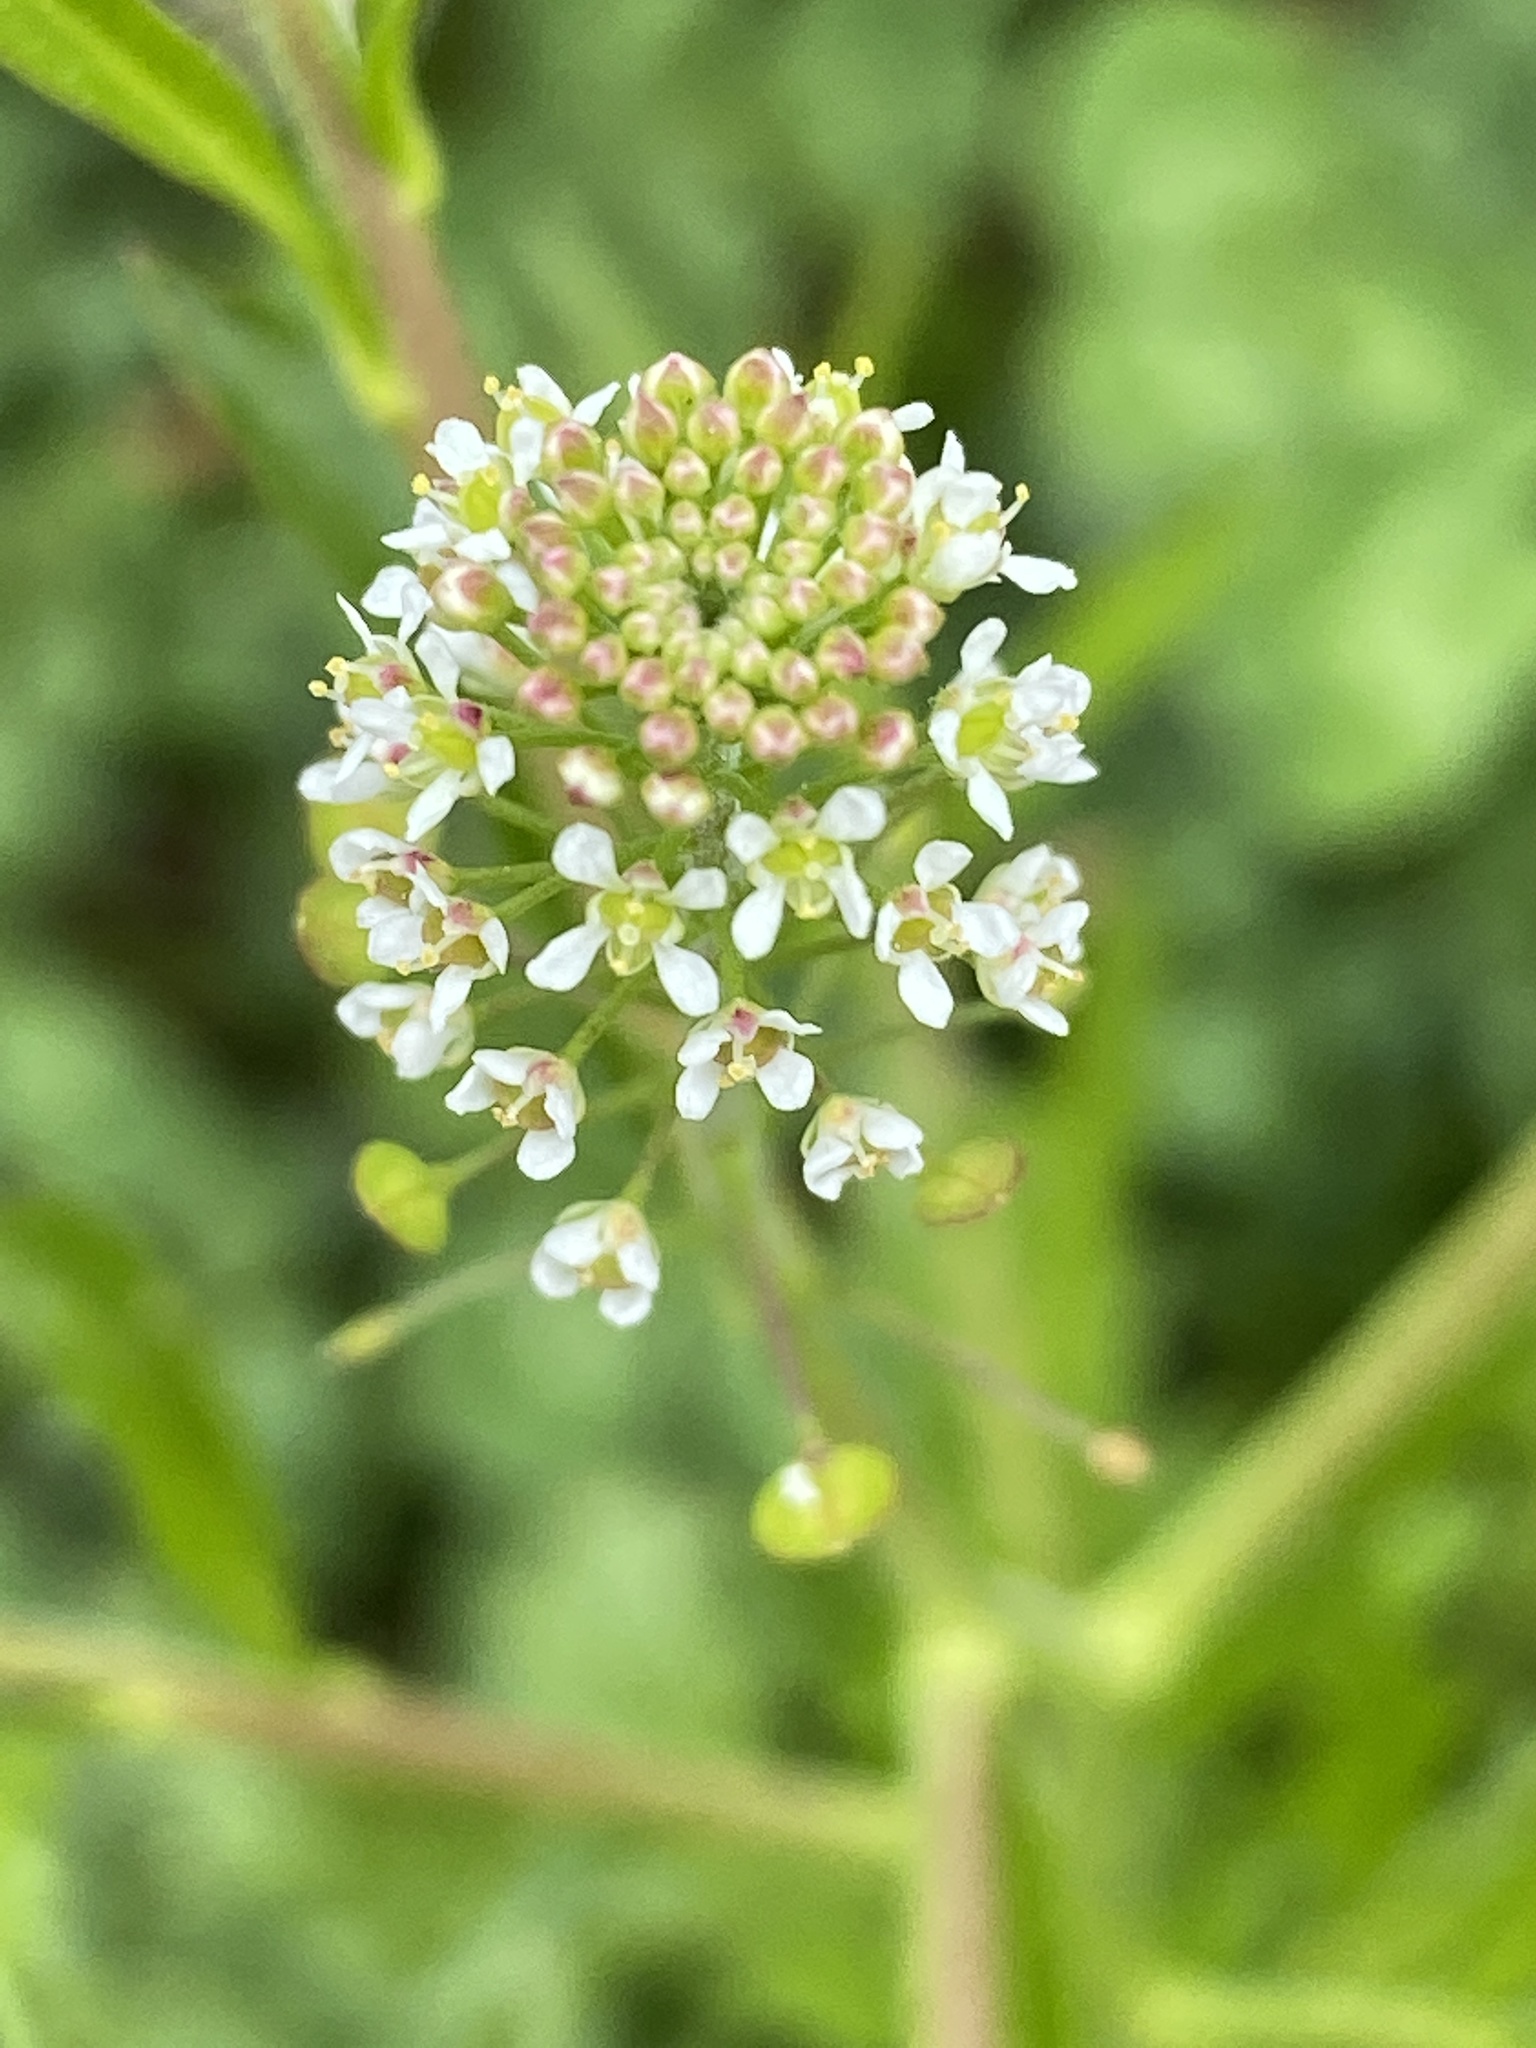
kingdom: Plantae
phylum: Tracheophyta
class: Magnoliopsida
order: Brassicales
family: Brassicaceae
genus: Lepidium
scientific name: Lepidium virginicum
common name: Least pepperwort
